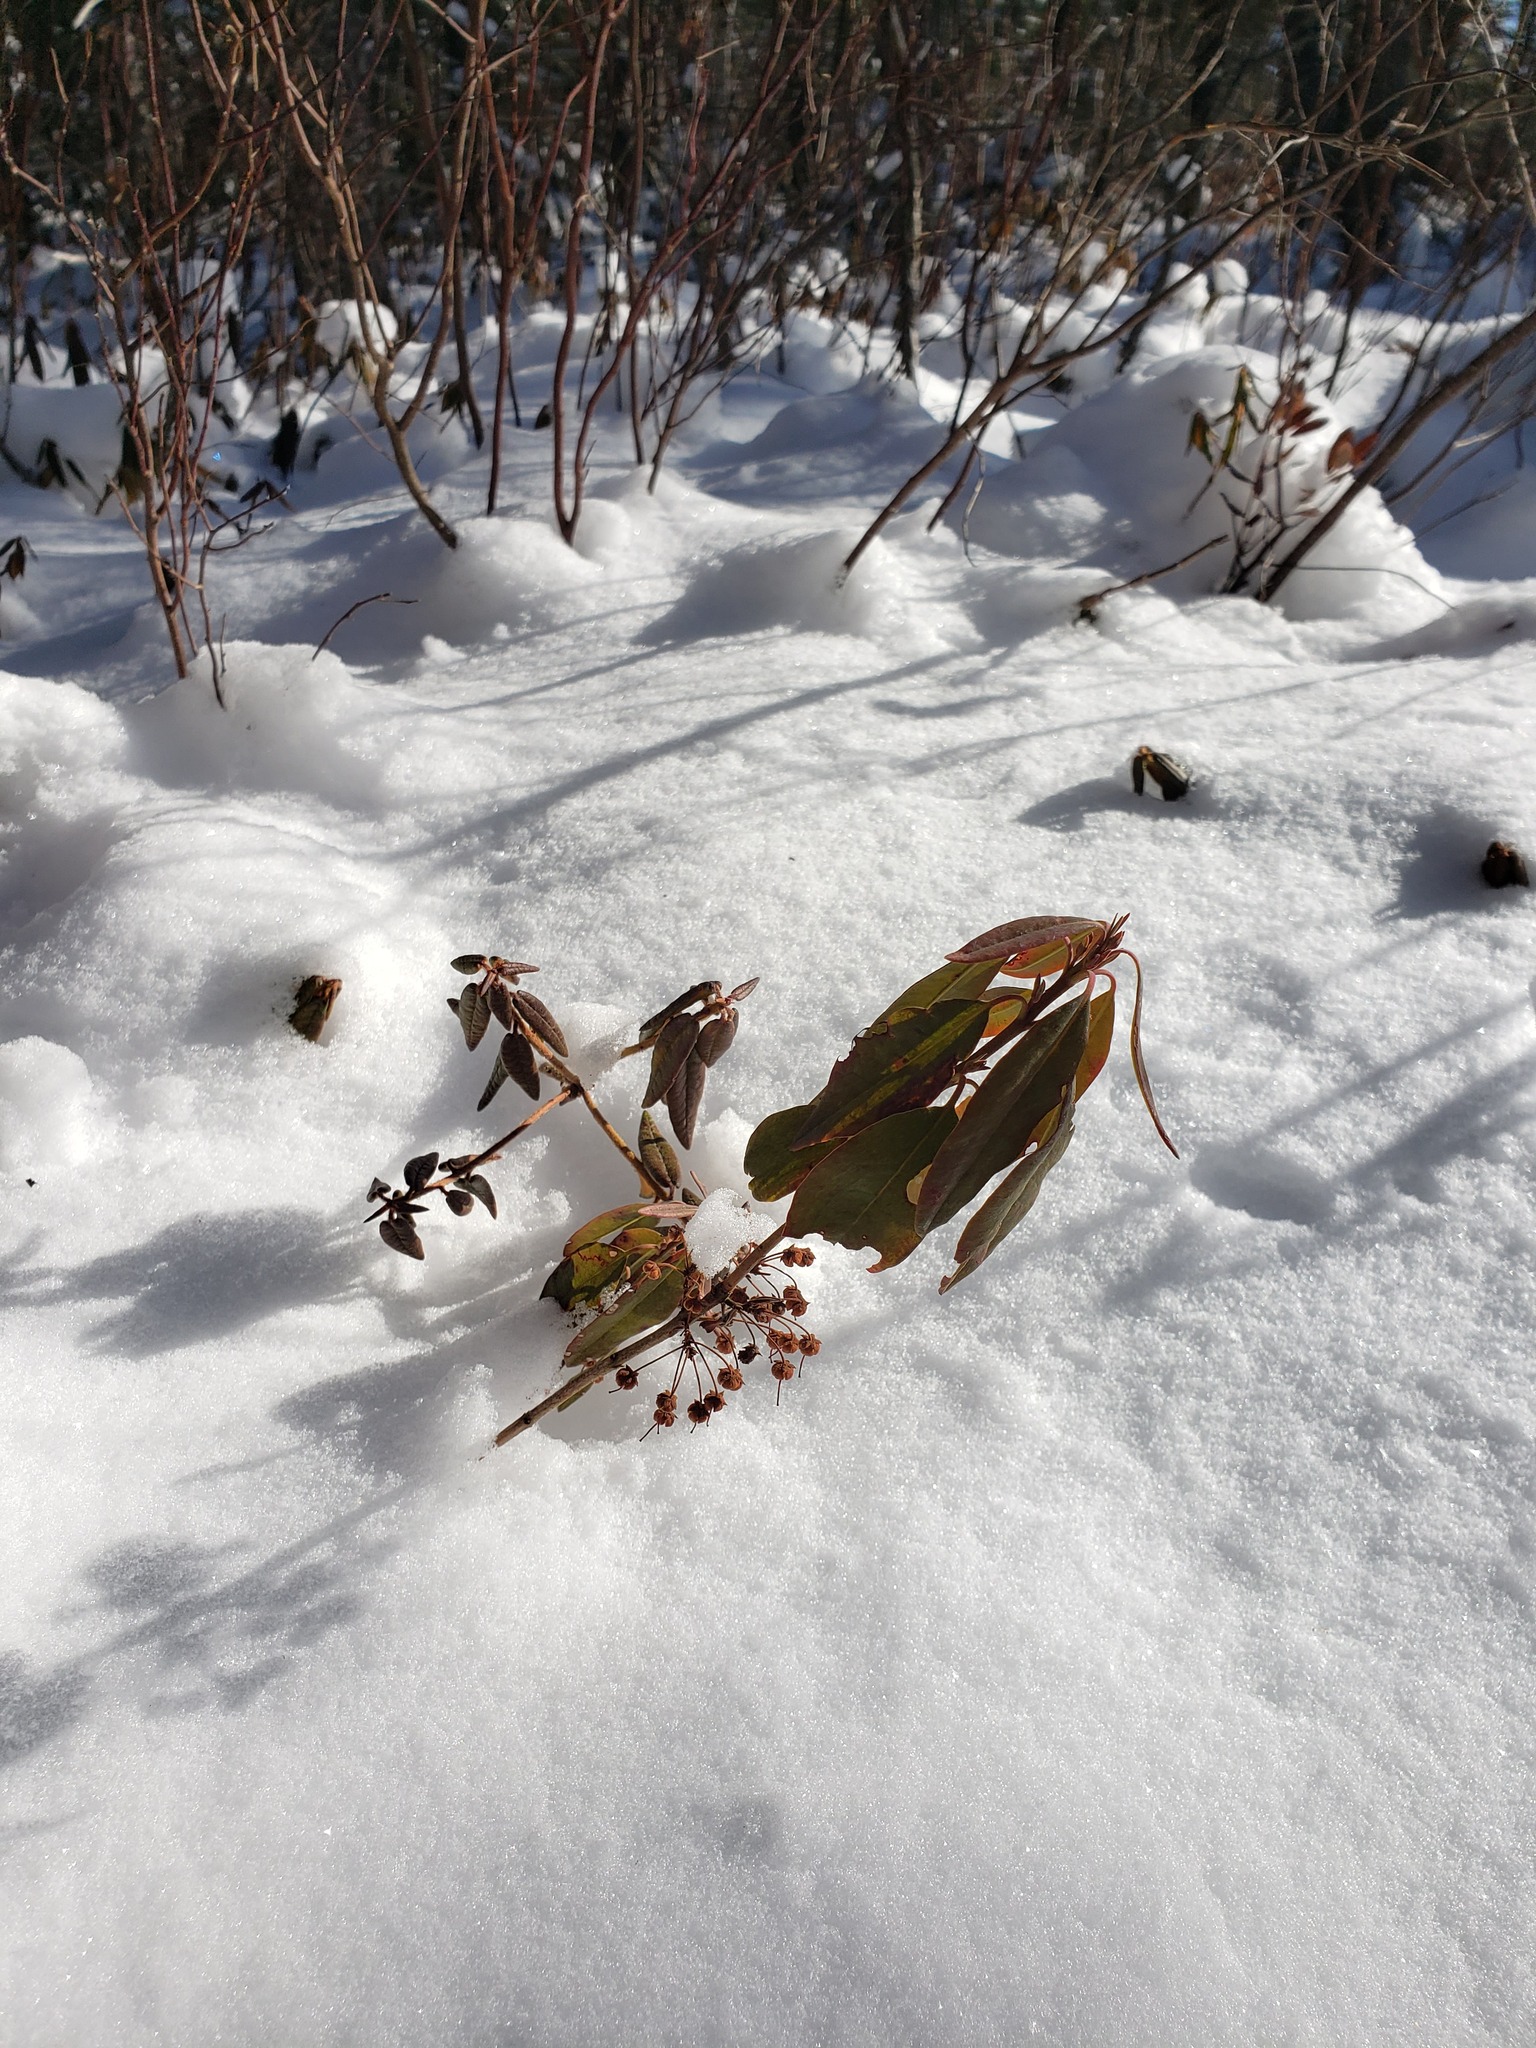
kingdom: Plantae
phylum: Tracheophyta
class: Magnoliopsida
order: Ericales
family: Ericaceae
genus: Kalmia
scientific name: Kalmia angustifolia
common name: Sheep-laurel
